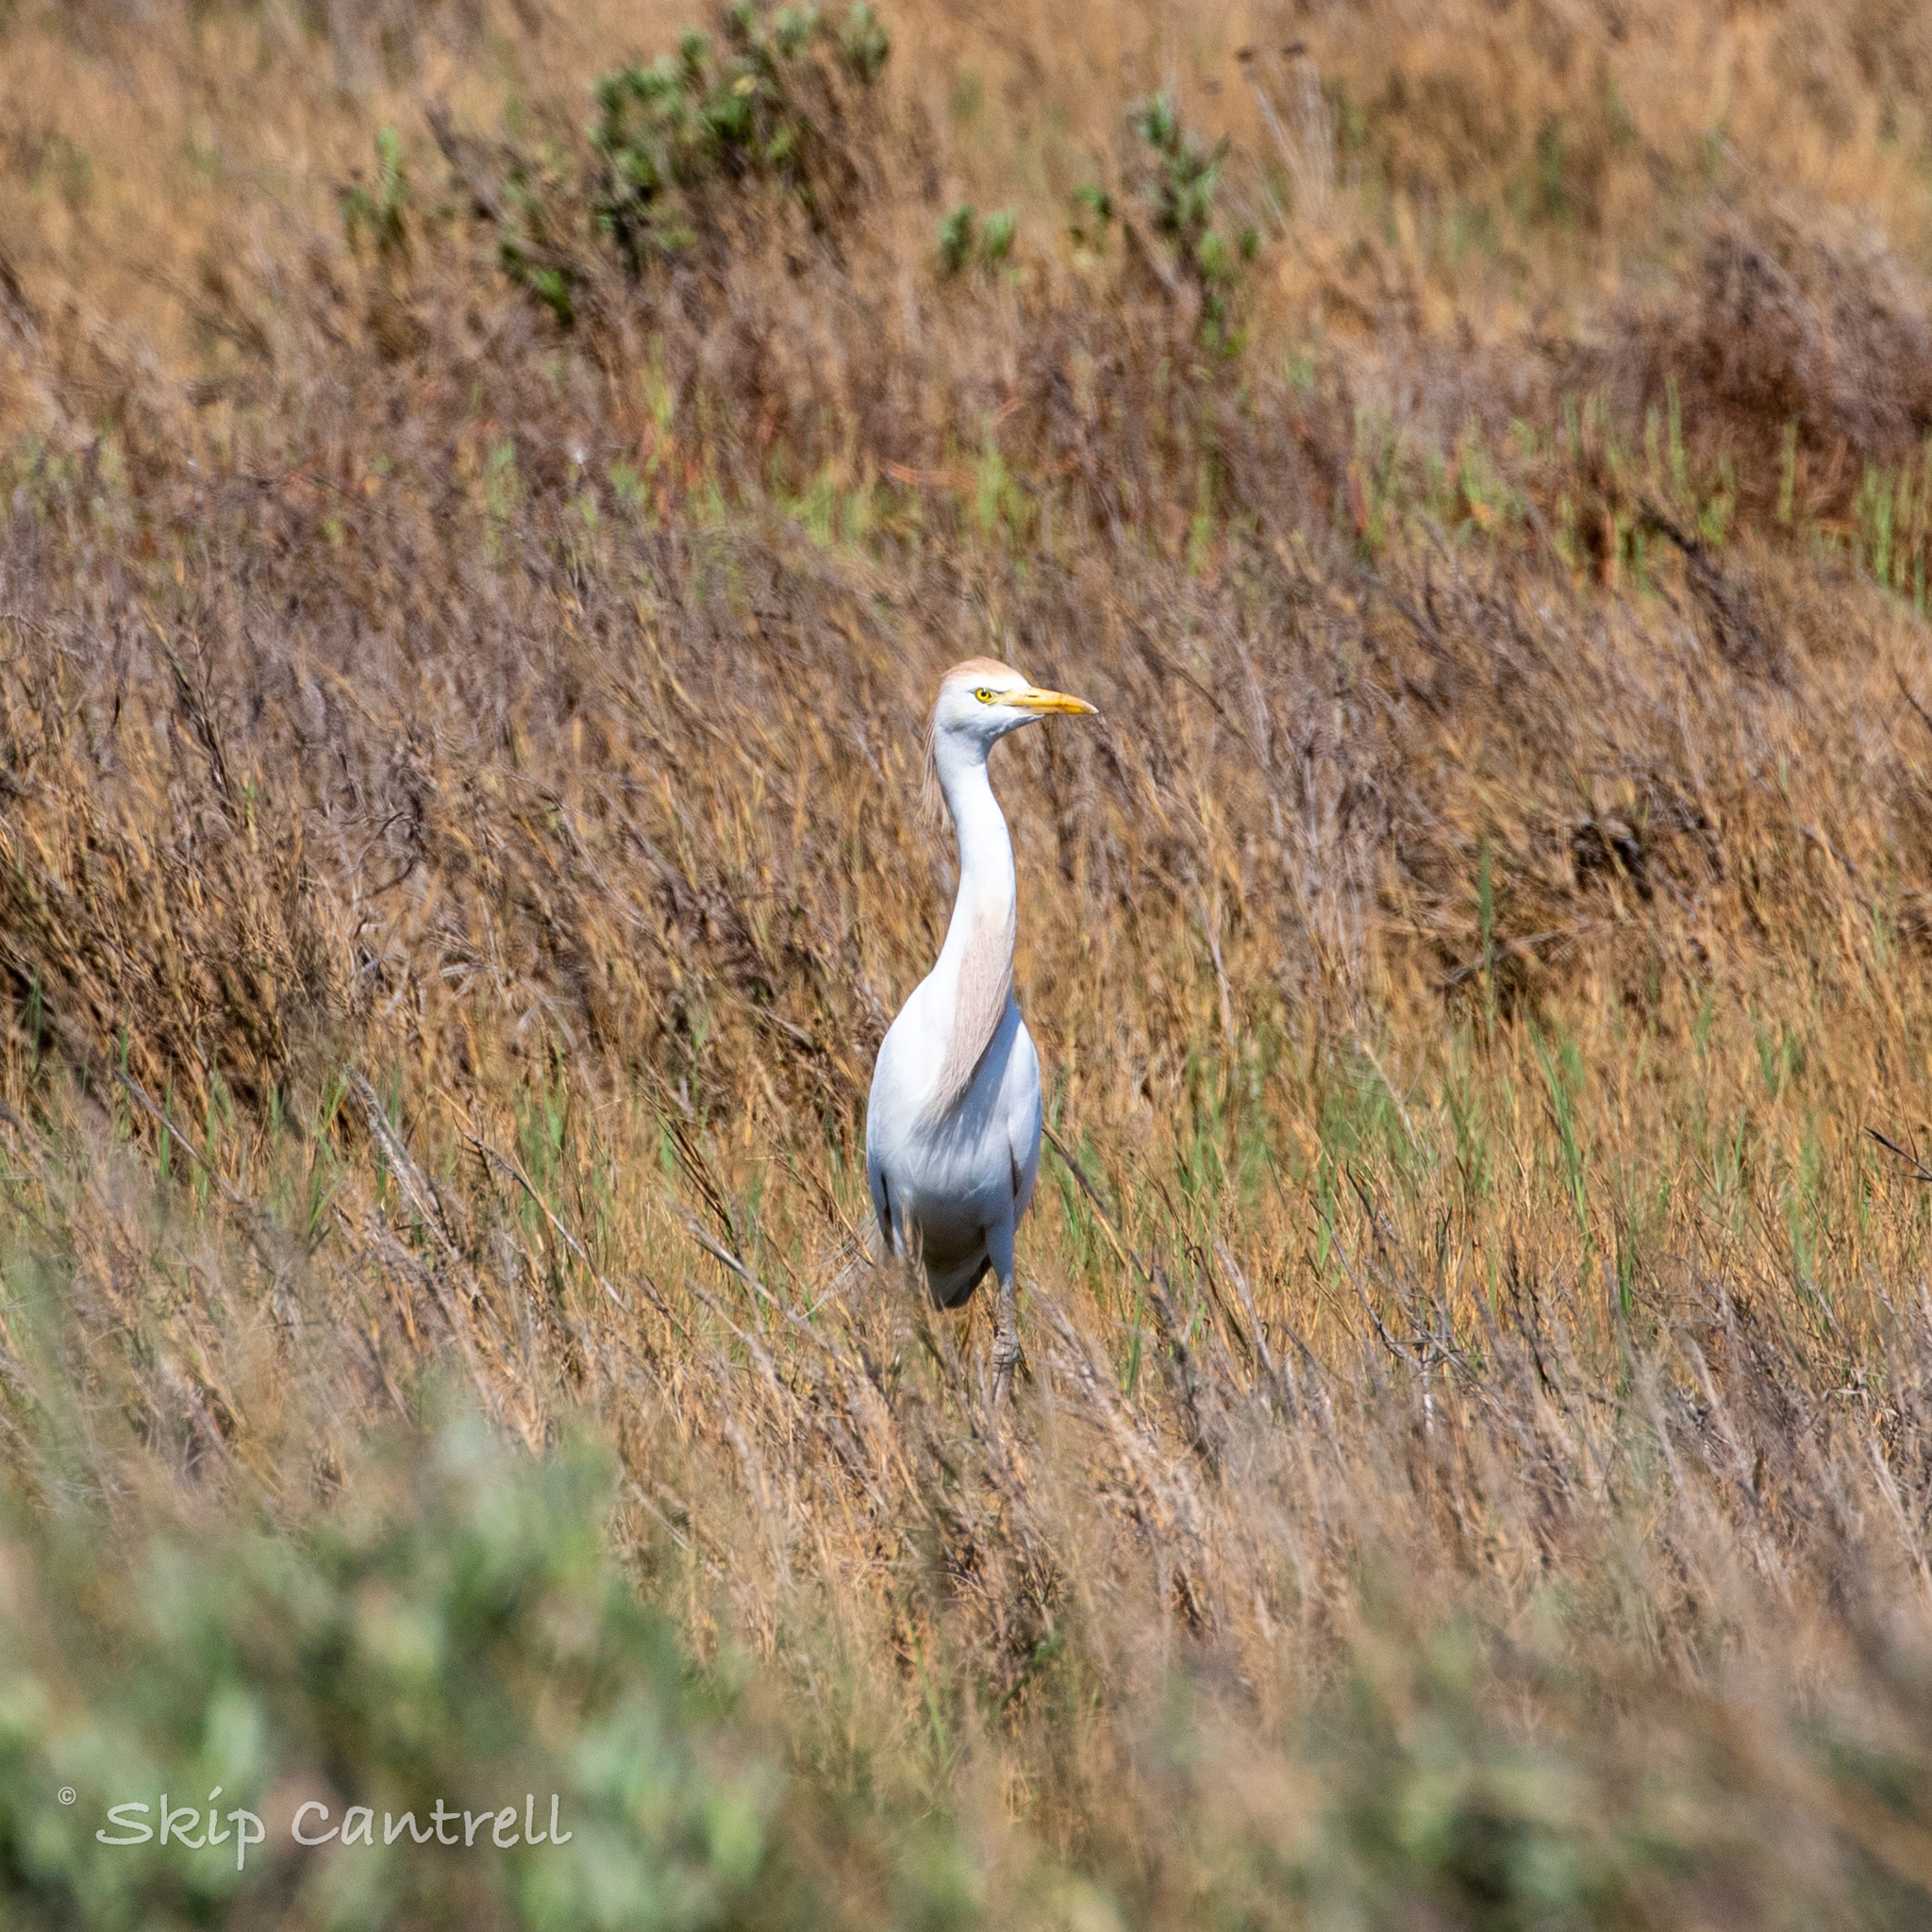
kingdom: Animalia
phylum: Chordata
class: Aves
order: Pelecaniformes
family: Ardeidae
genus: Bubulcus
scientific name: Bubulcus ibis
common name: Cattle egret
